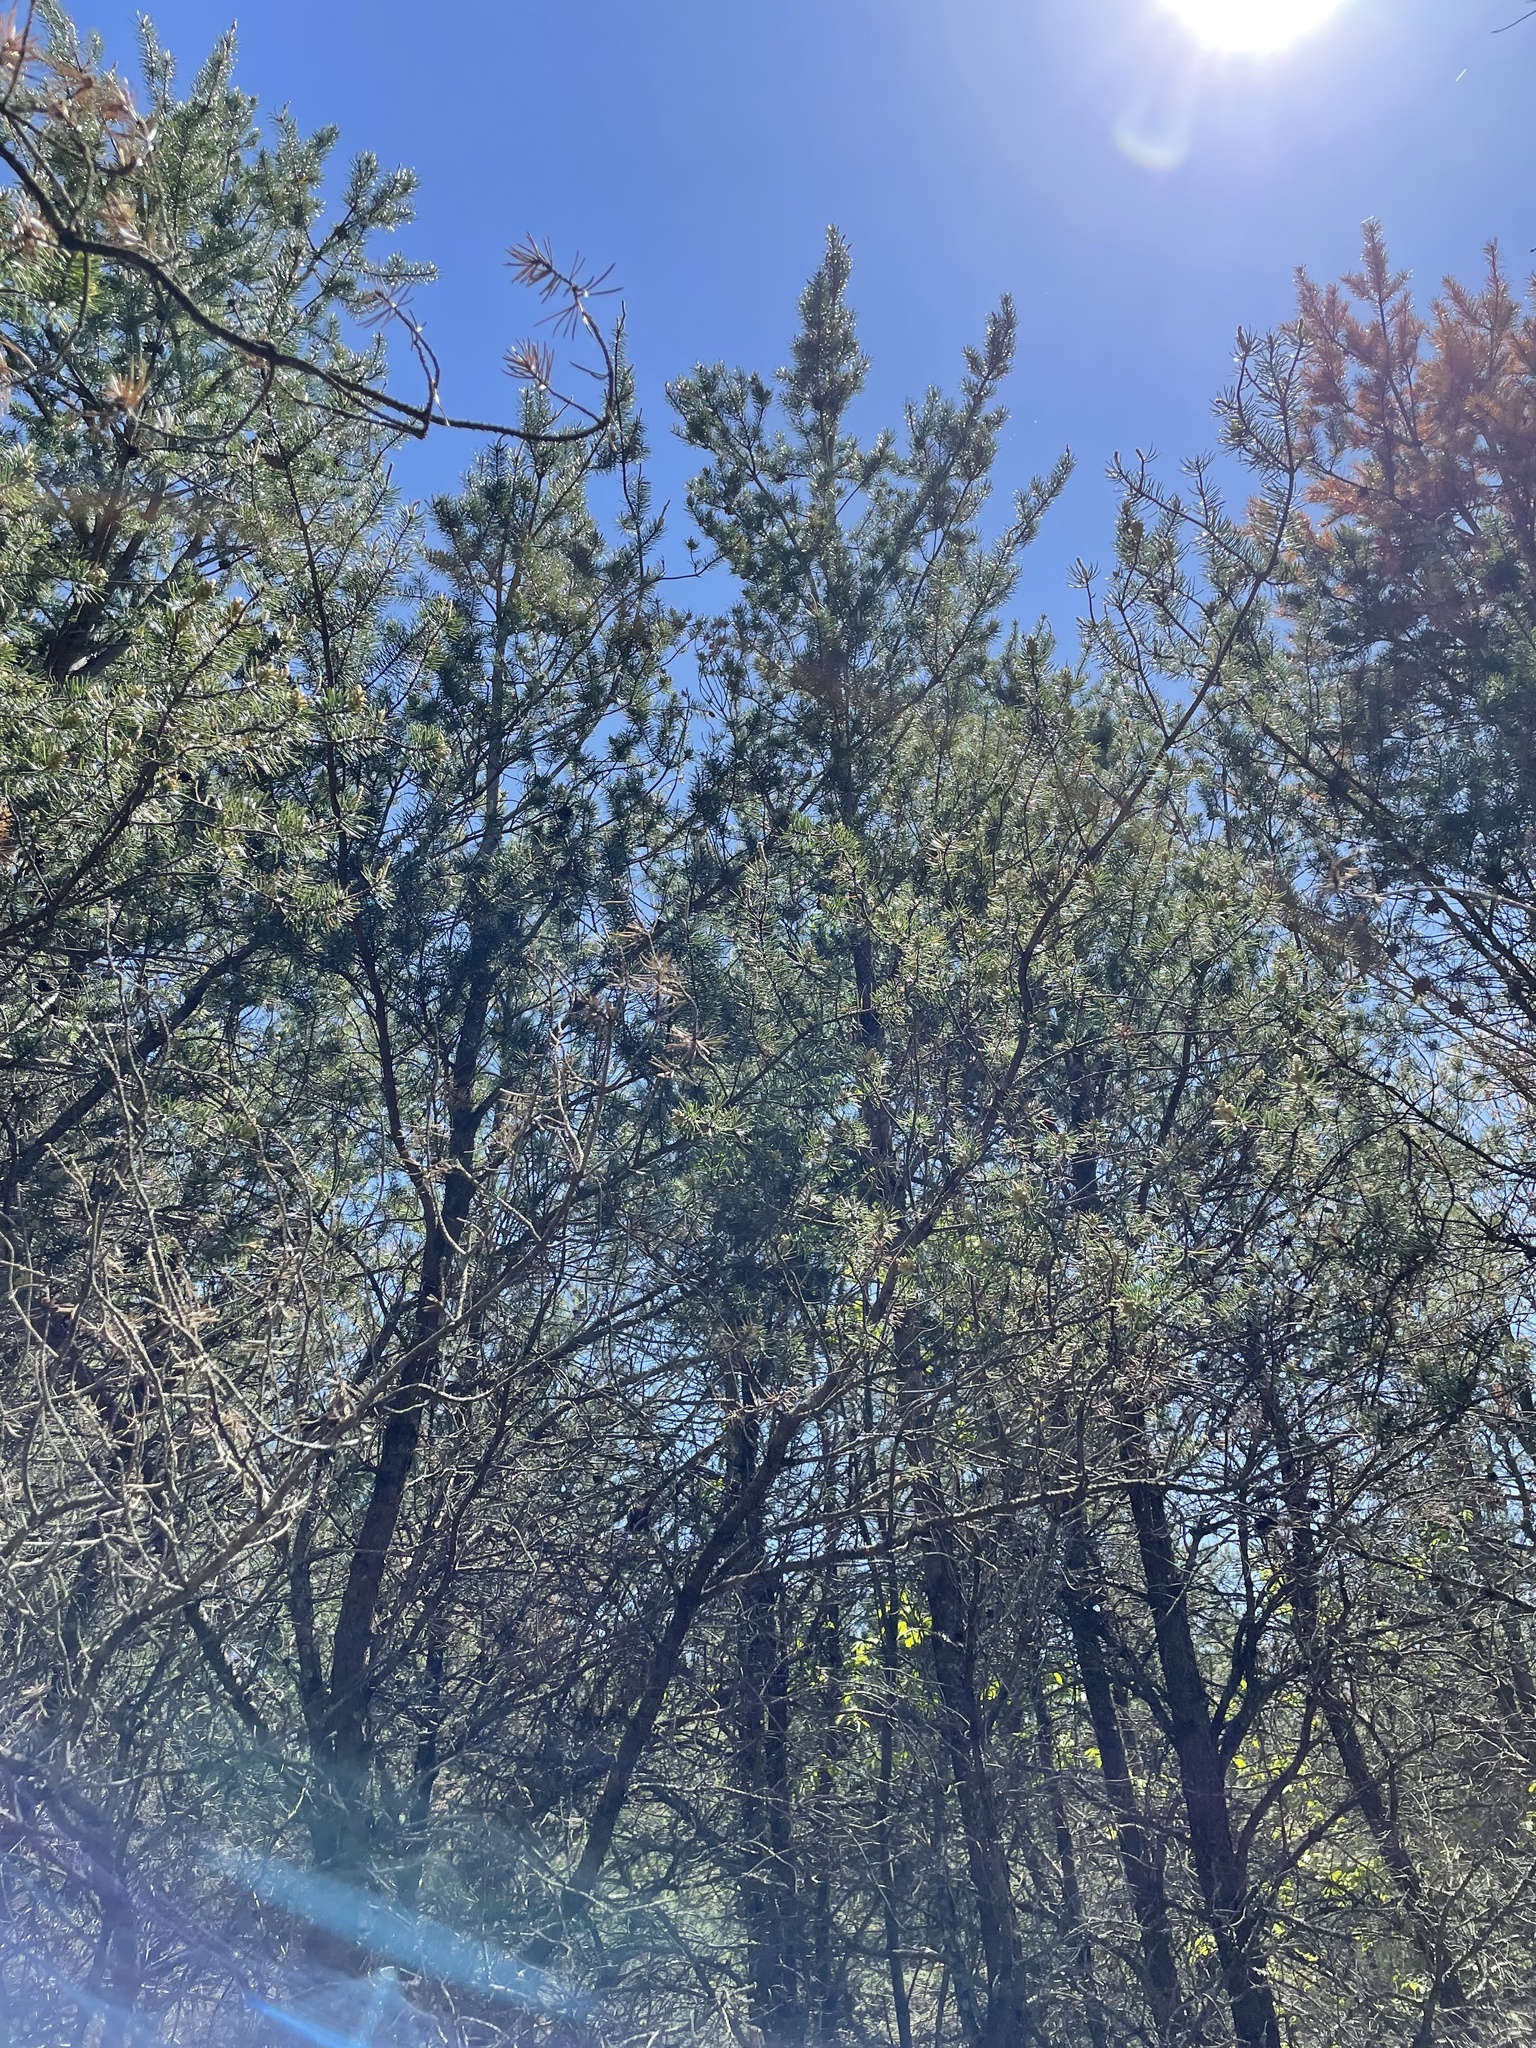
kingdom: Plantae
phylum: Tracheophyta
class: Pinopsida
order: Pinales
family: Pinaceae
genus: Pinus
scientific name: Pinus banksiana
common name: Jack pine
